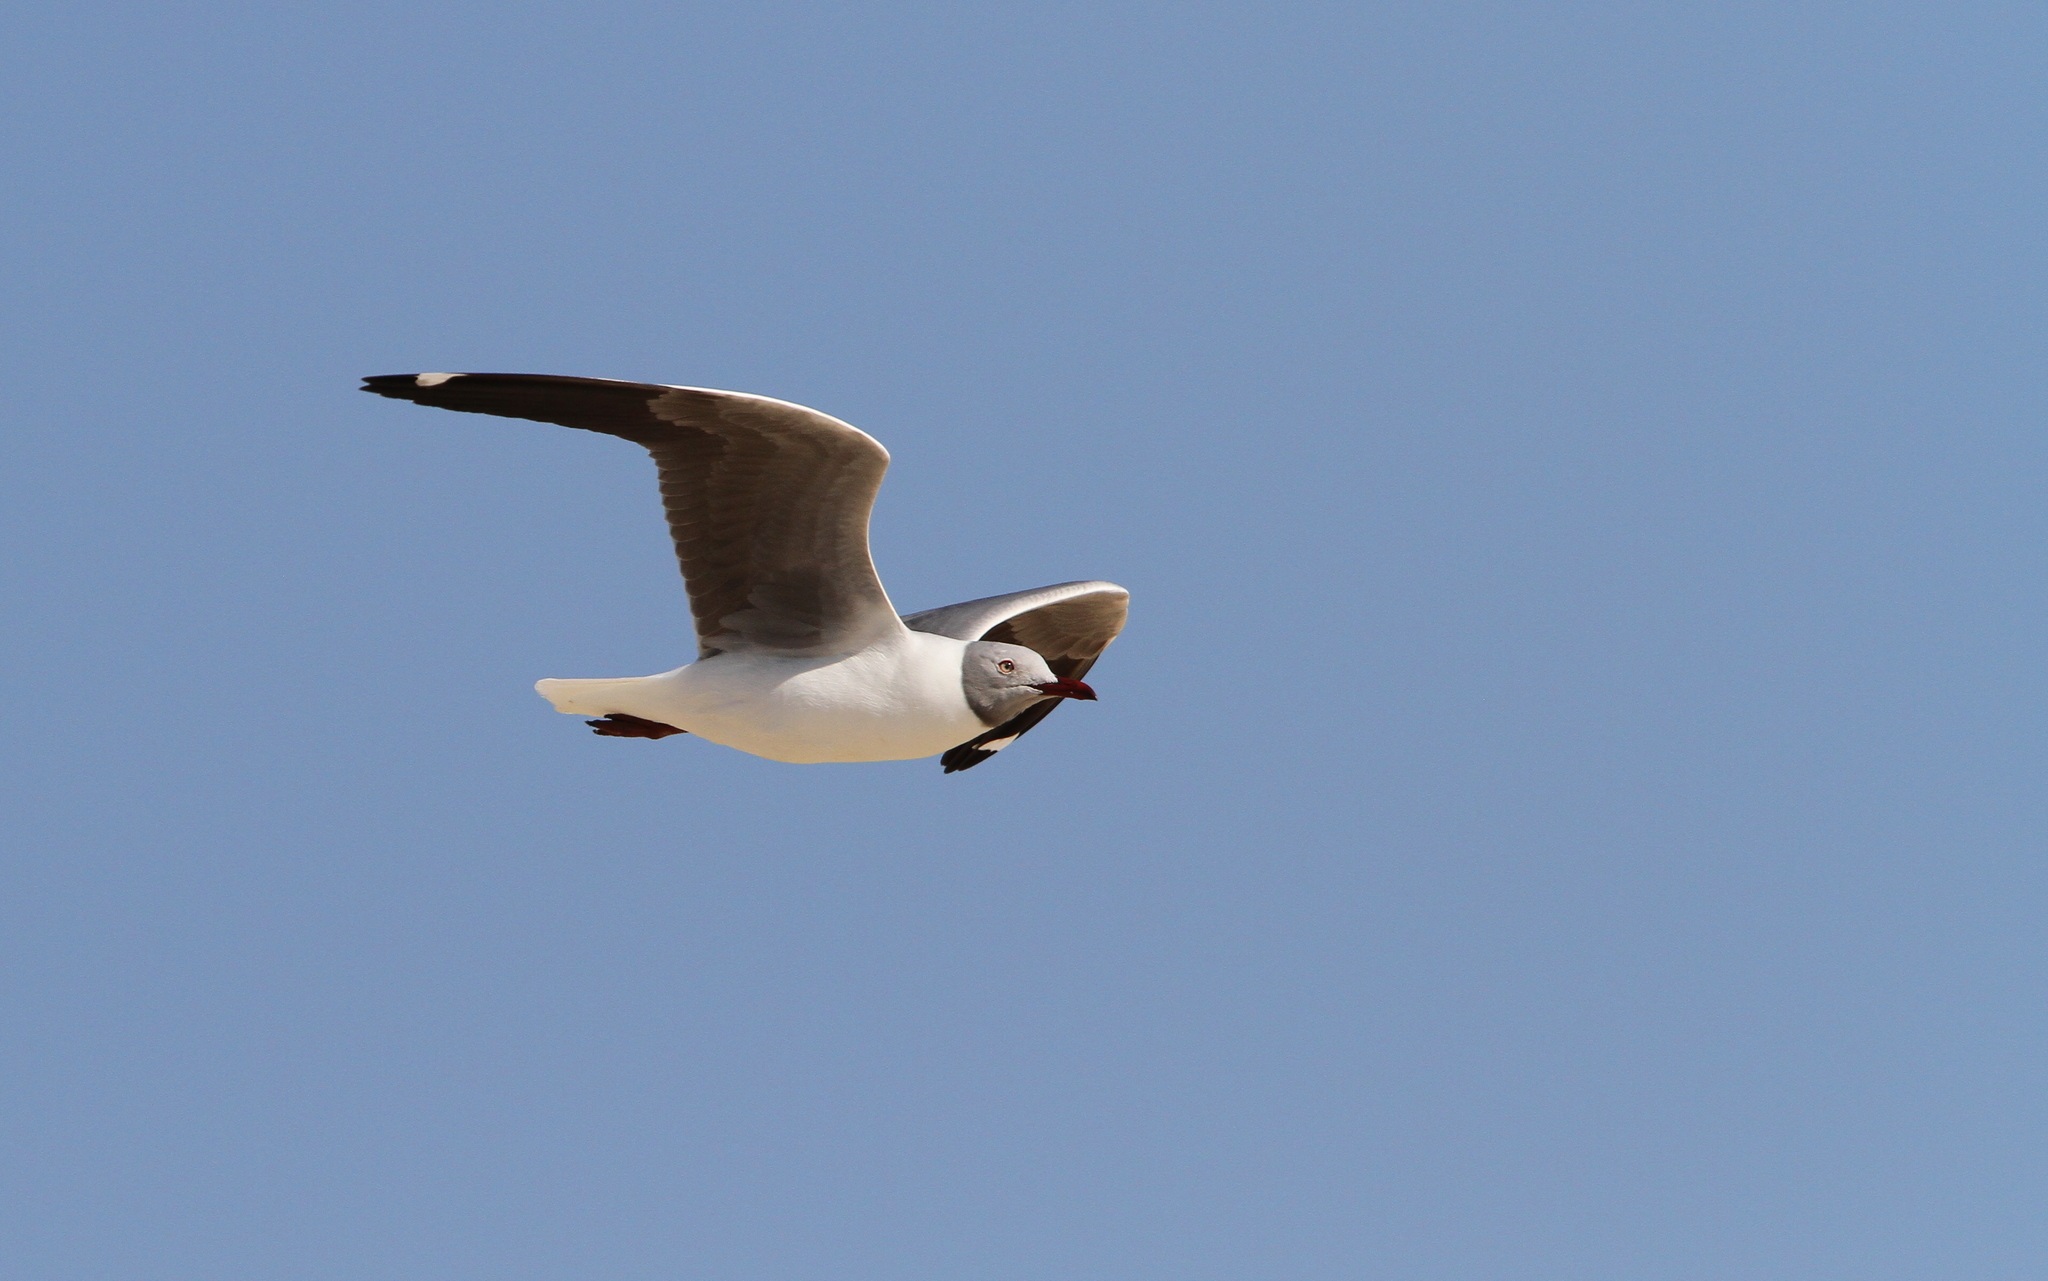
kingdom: Animalia
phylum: Chordata
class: Aves
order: Charadriiformes
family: Laridae
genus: Chroicocephalus
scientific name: Chroicocephalus cirrocephalus
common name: Grey-headed gull
